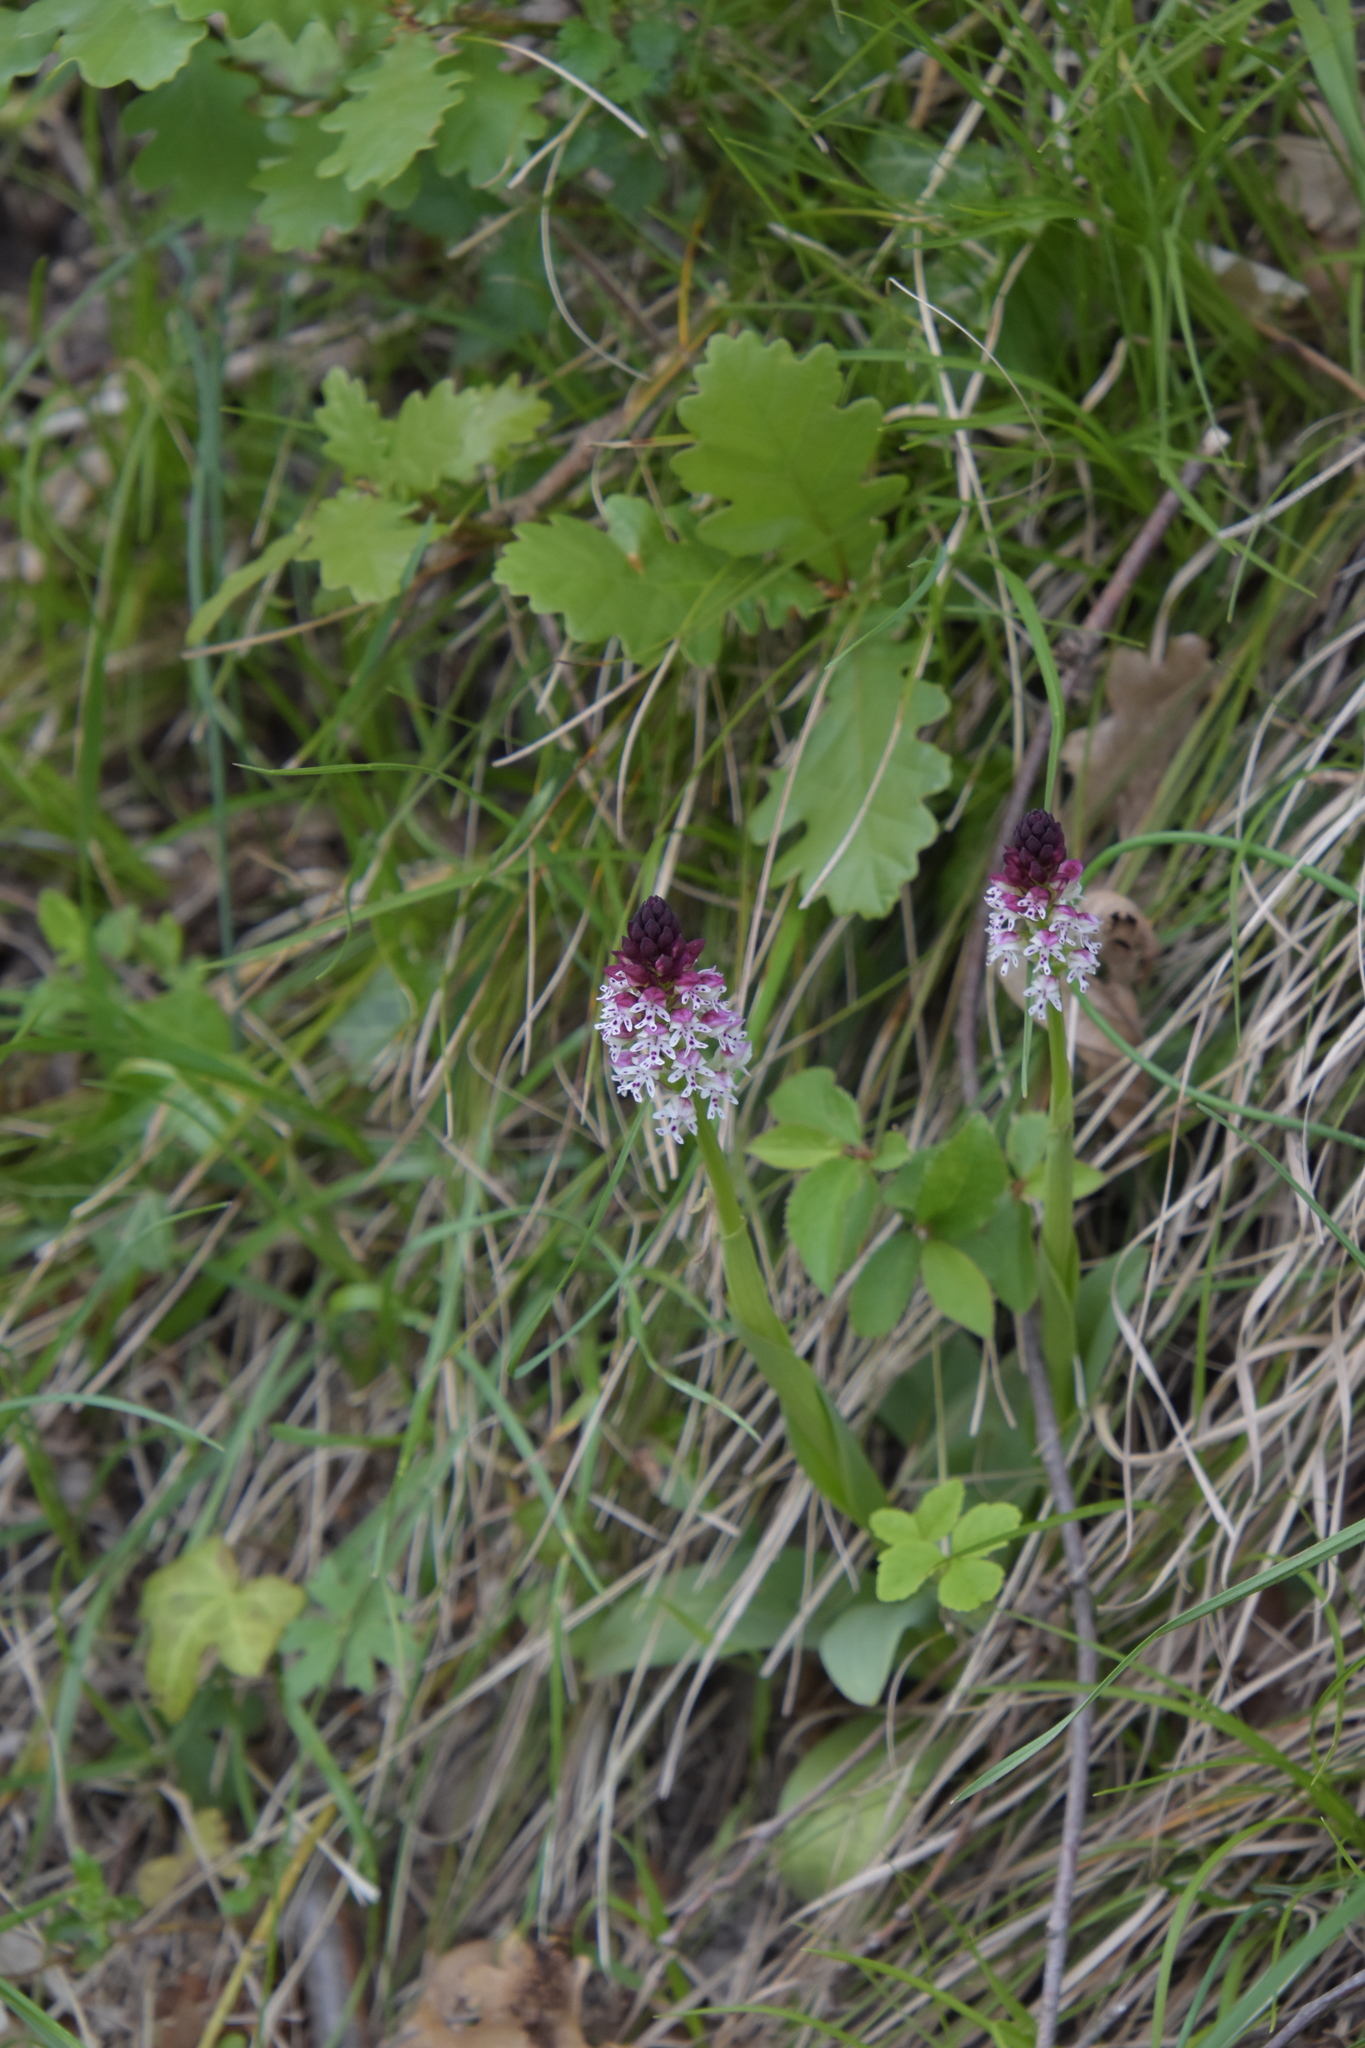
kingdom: Plantae
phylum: Tracheophyta
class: Liliopsida
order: Asparagales
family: Orchidaceae
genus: Neotinea
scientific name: Neotinea ustulata
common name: Burnt orchid
